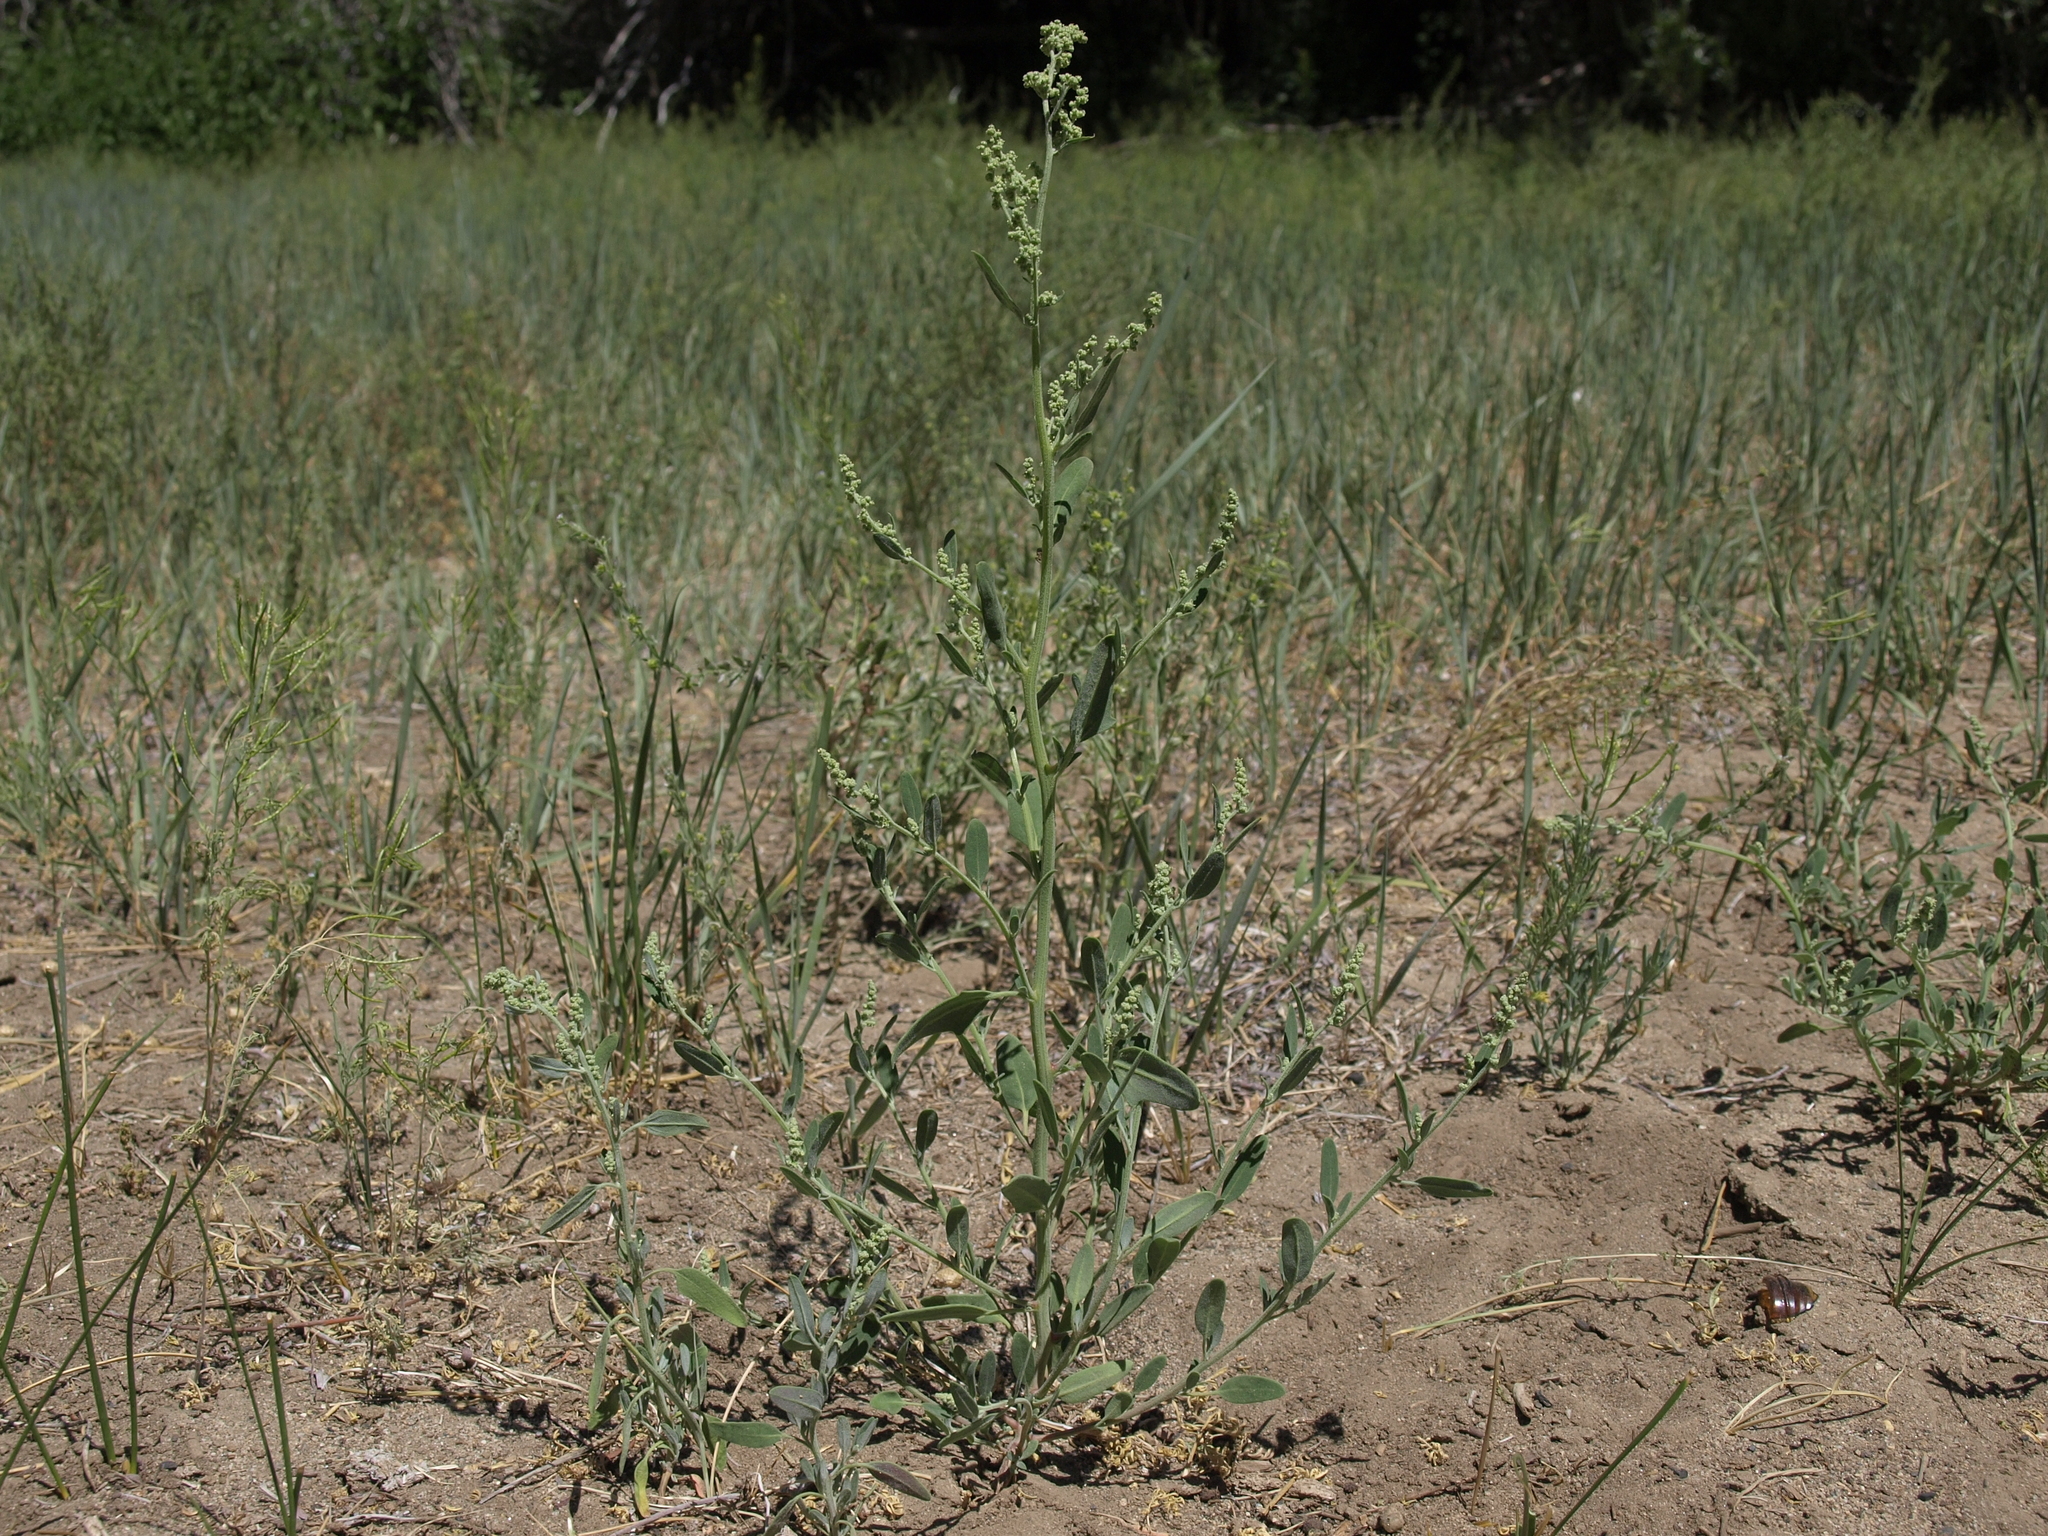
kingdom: Plantae
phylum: Tracheophyta
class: Magnoliopsida
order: Caryophyllales
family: Amaranthaceae
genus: Chenopodium
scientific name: Chenopodium pratericola
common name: Desert goosefoot
